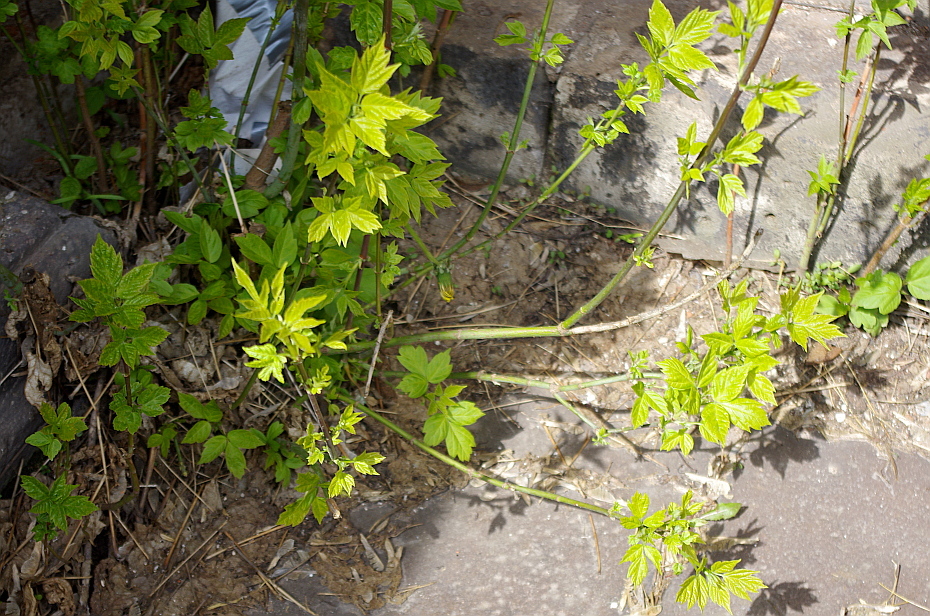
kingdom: Plantae
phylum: Tracheophyta
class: Magnoliopsida
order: Sapindales
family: Sapindaceae
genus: Acer
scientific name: Acer negundo
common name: Ashleaf maple
